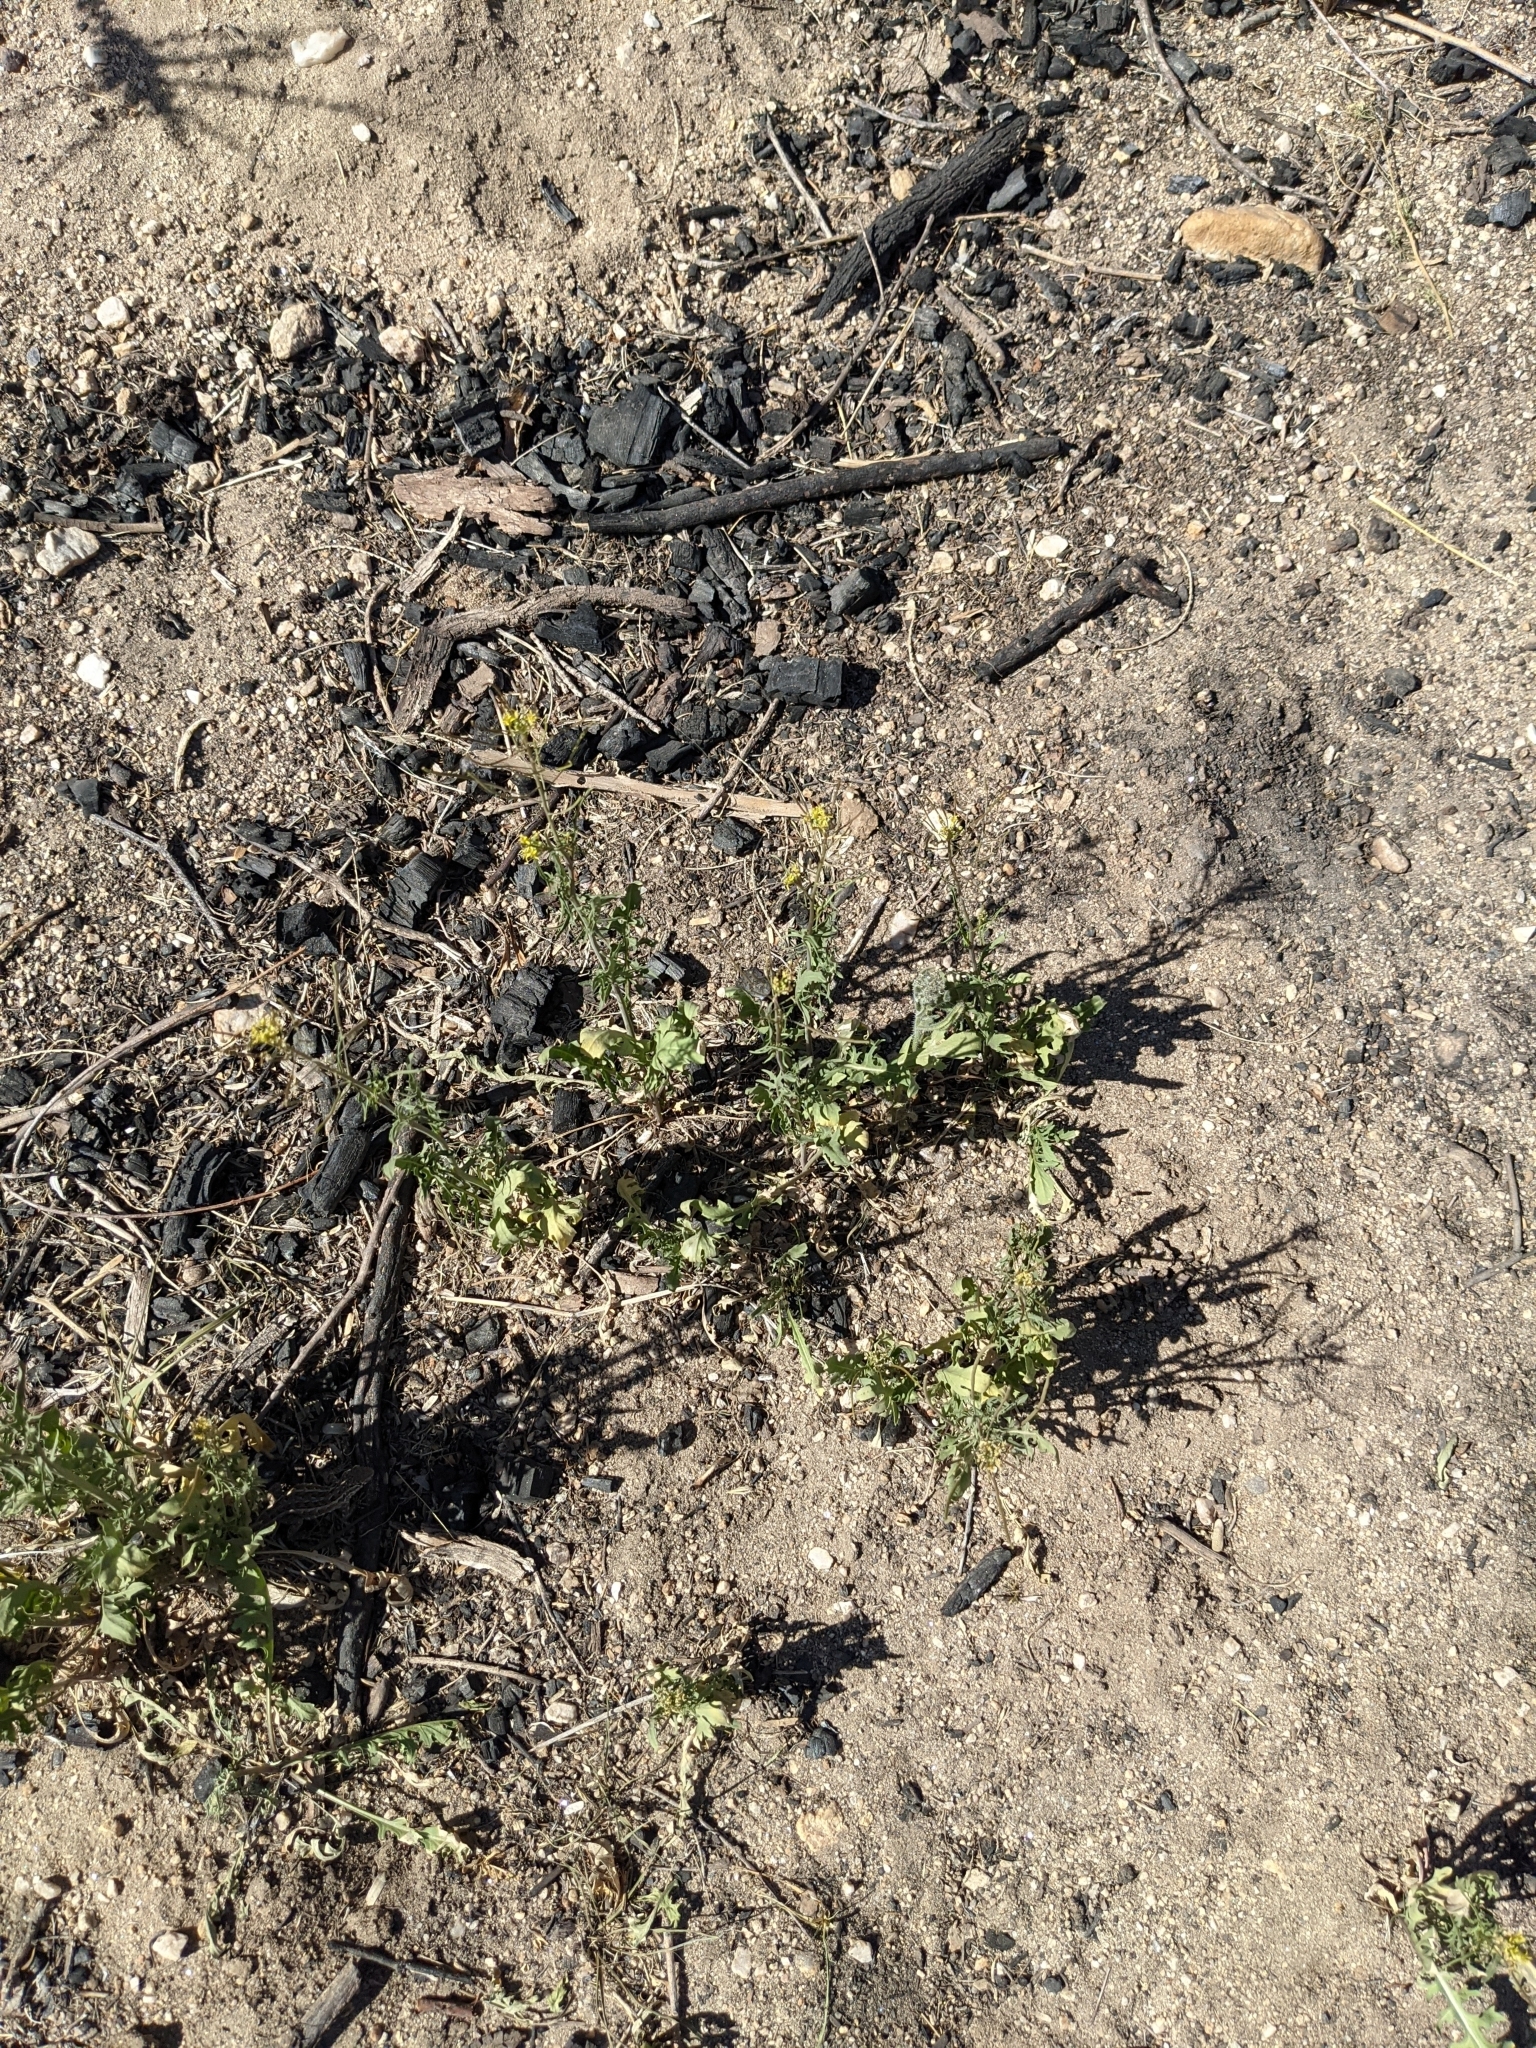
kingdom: Plantae
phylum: Tracheophyta
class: Magnoliopsida
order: Brassicales
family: Brassicaceae
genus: Sisymbrium
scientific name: Sisymbrium irio
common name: London rocket
